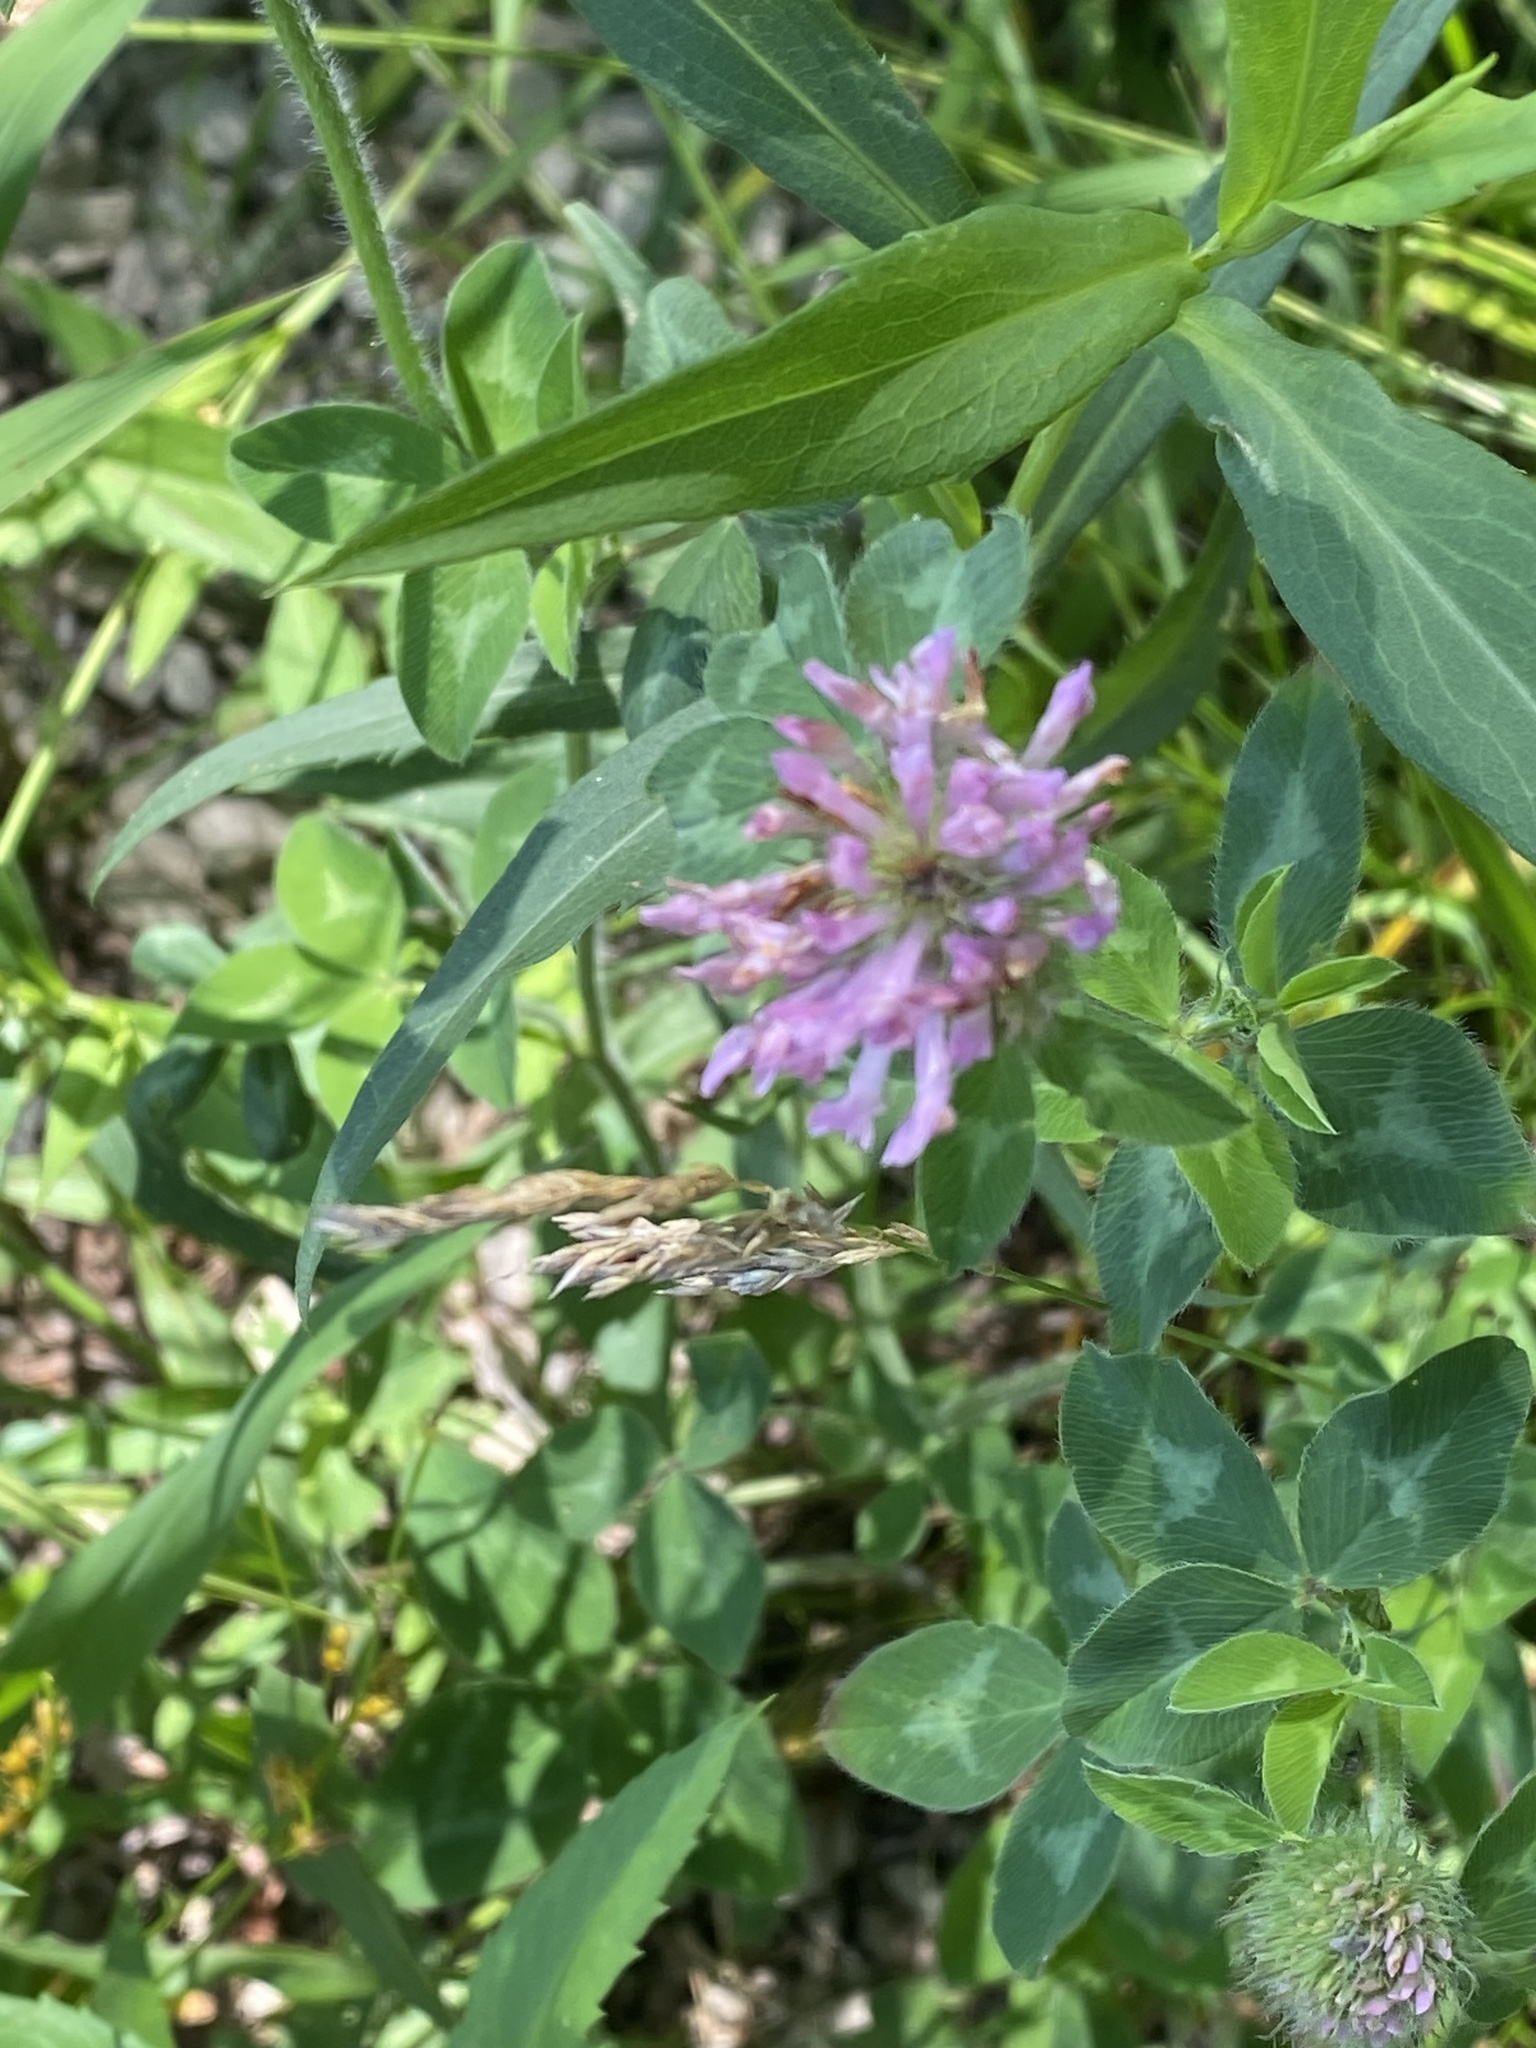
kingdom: Plantae
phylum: Tracheophyta
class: Magnoliopsida
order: Fabales
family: Fabaceae
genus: Trifolium
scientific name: Trifolium pratense
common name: Red clover
